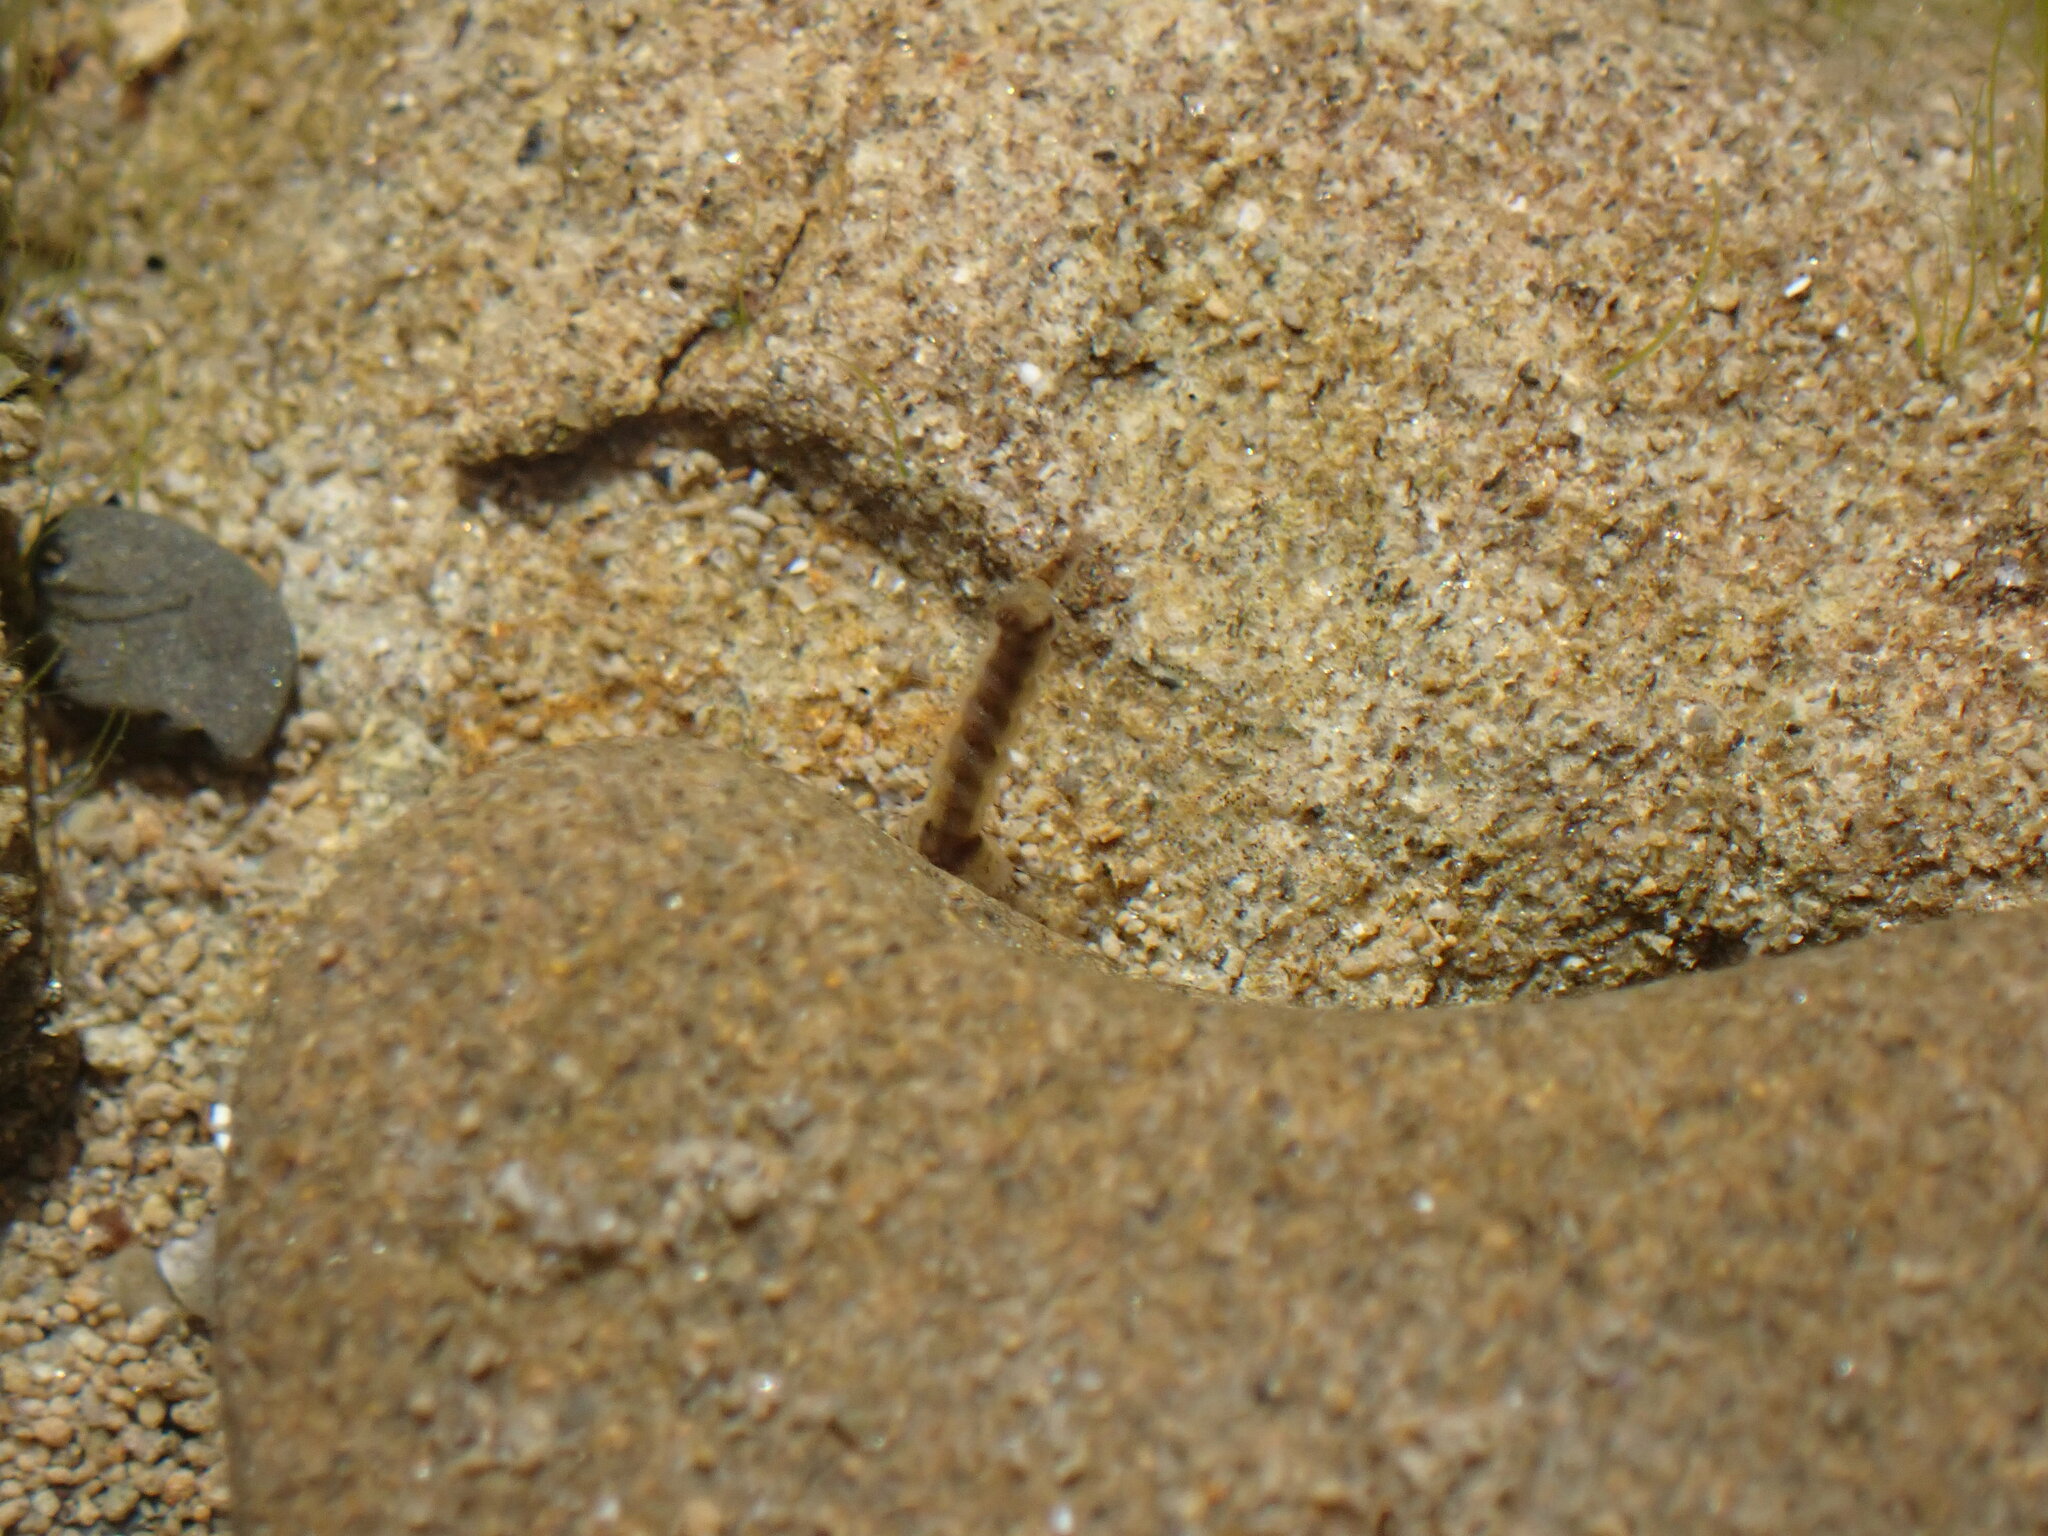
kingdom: Animalia
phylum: Arthropoda
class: Insecta
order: Diptera
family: Culicidae
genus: Opifex
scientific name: Opifex fuscus
